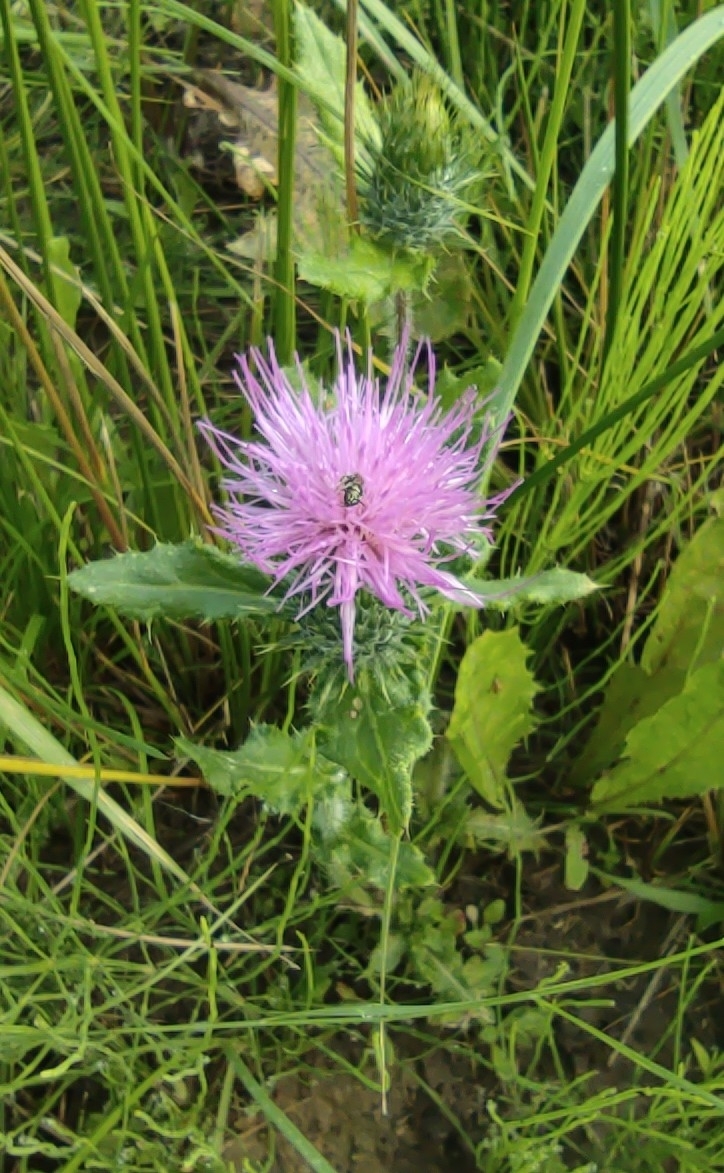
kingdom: Plantae
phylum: Tracheophyta
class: Magnoliopsida
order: Asterales
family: Asteraceae
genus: Cirsium
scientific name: Cirsium vulgare
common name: Bull thistle
